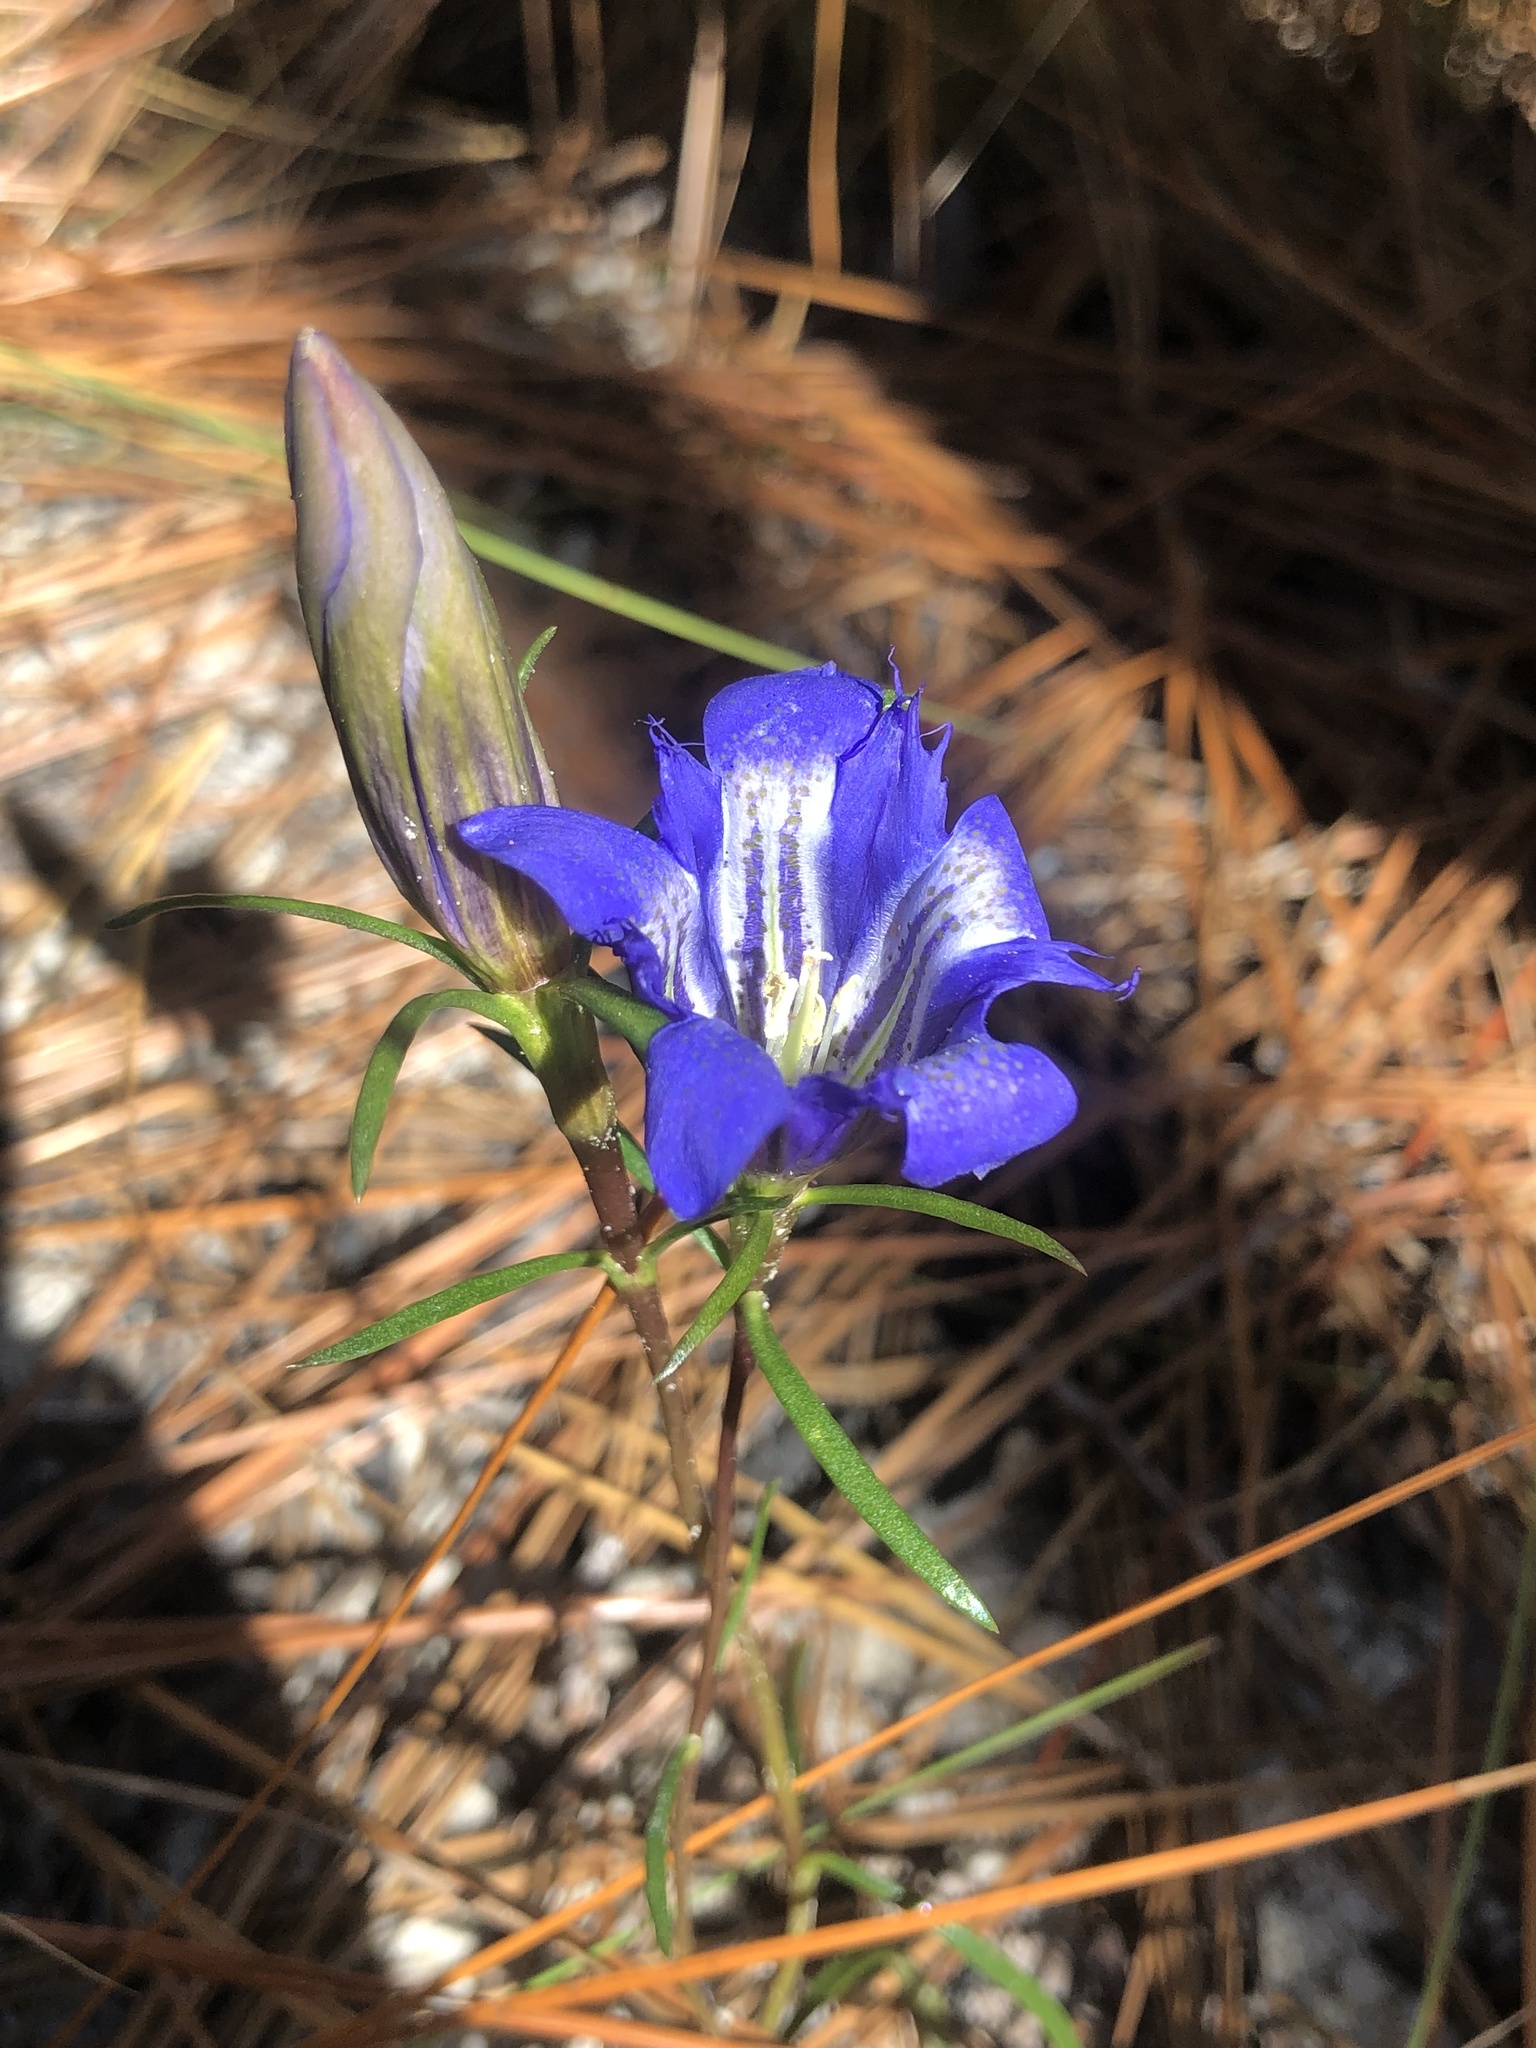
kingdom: Plantae
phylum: Tracheophyta
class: Magnoliopsida
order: Gentianales
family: Gentianaceae
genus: Gentiana
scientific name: Gentiana autumnalis
